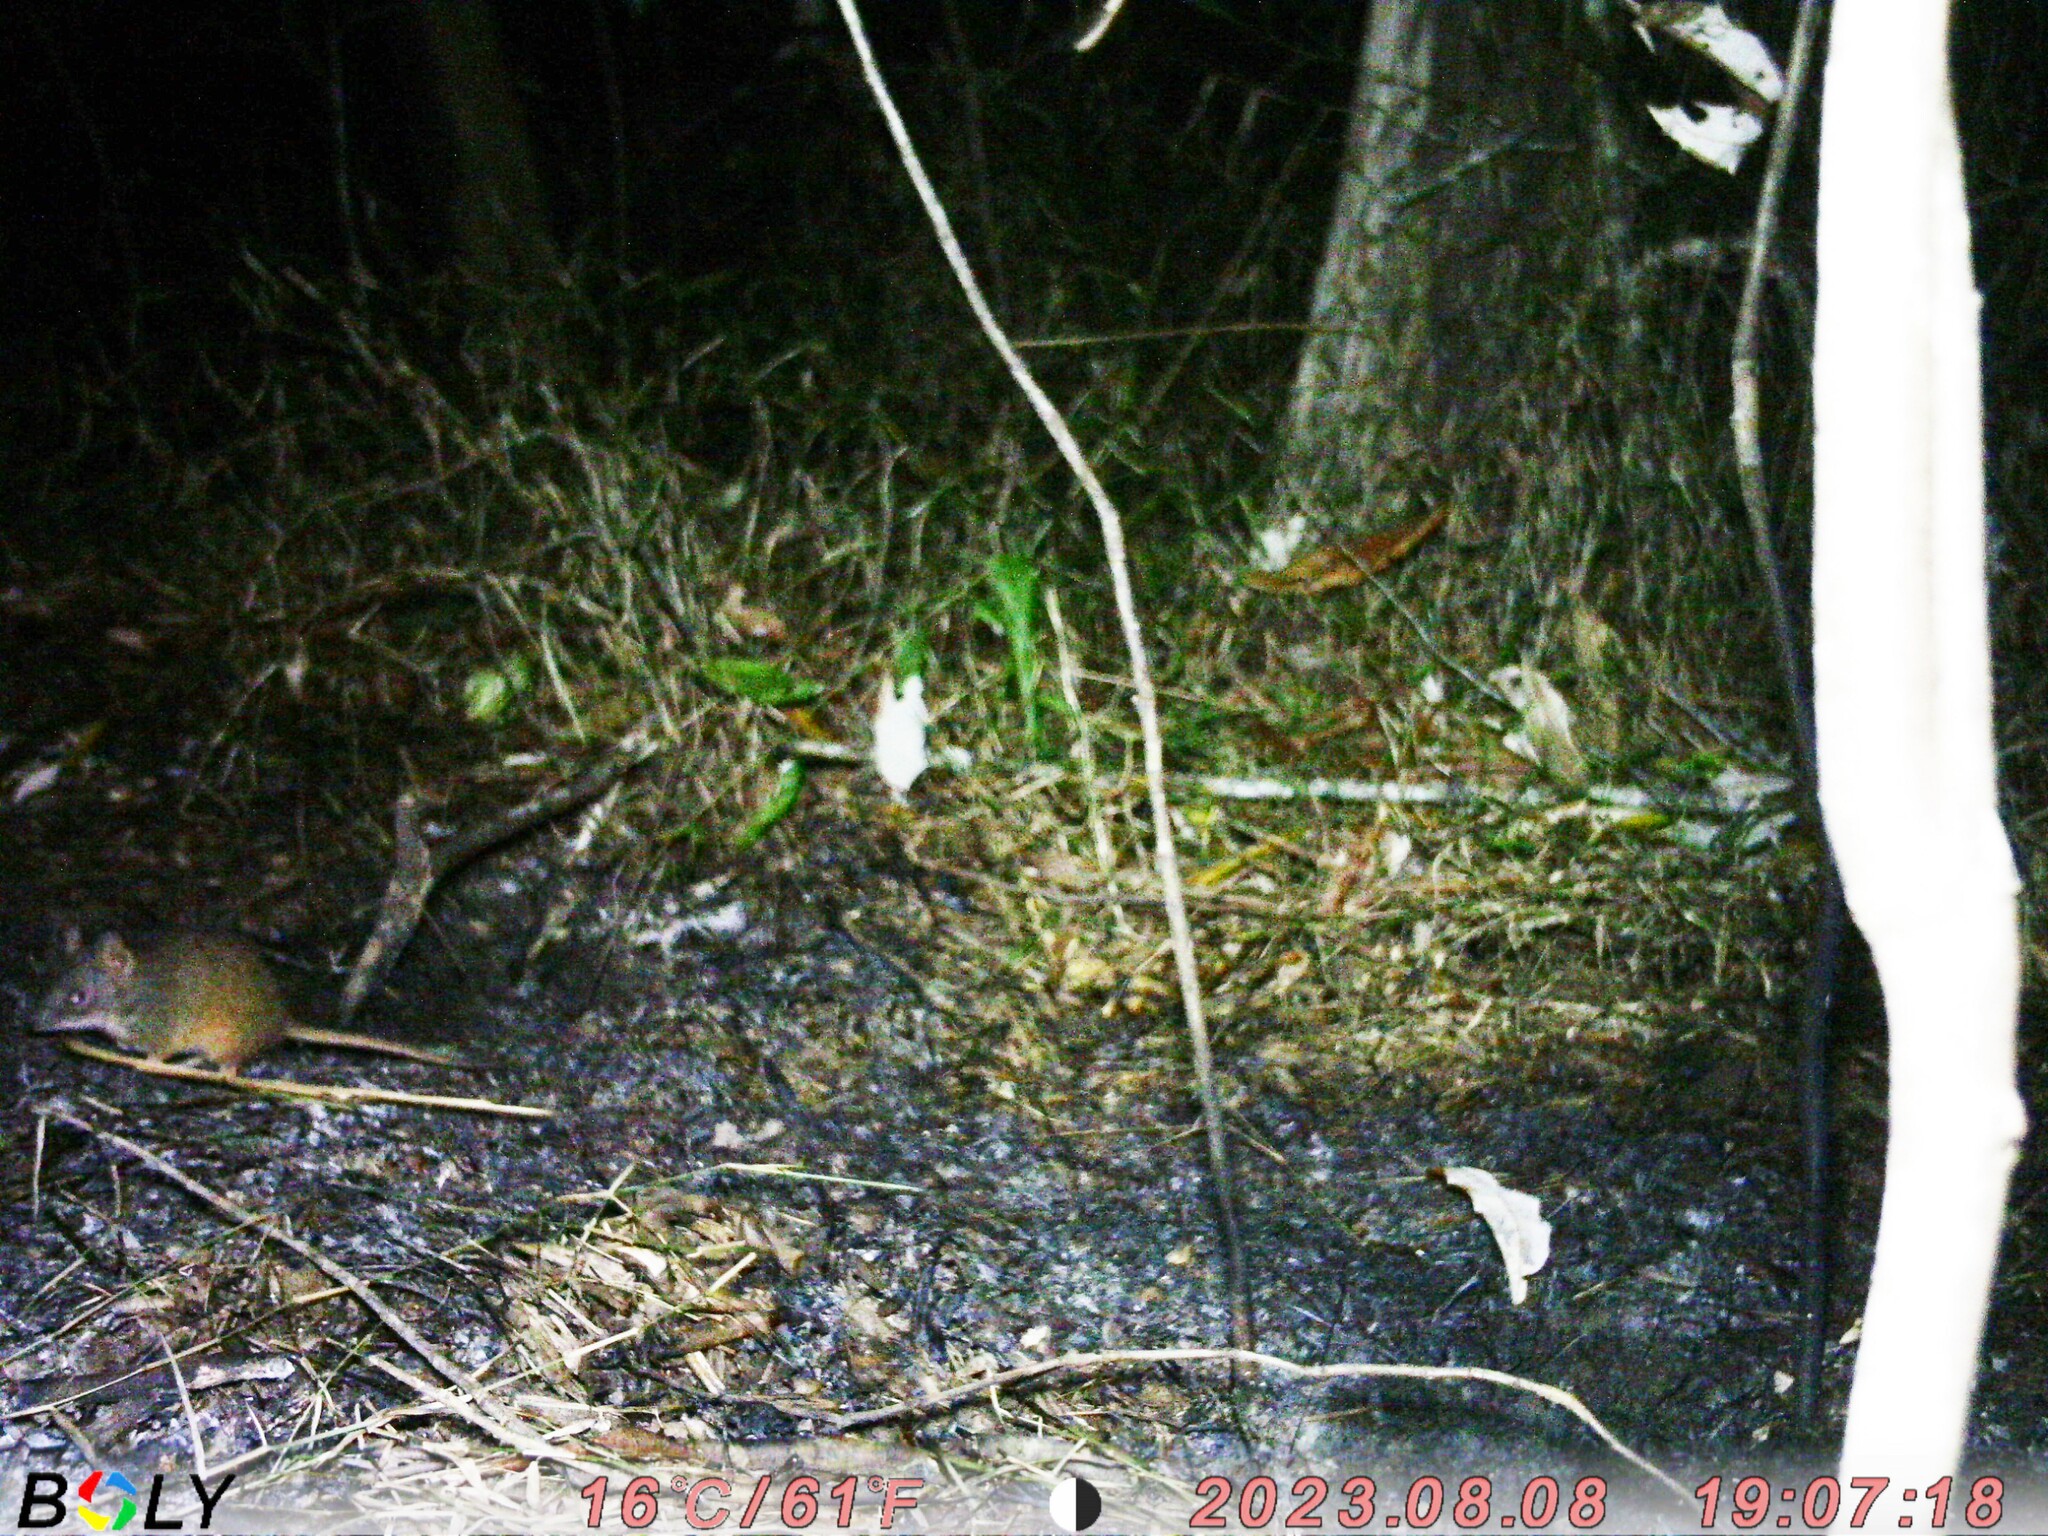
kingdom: Animalia
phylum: Chordata
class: Mammalia
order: Dasyuromorphia
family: Dasyuridae
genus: Antechinus
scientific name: Antechinus flavipes
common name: Yellow-footed antechinus
